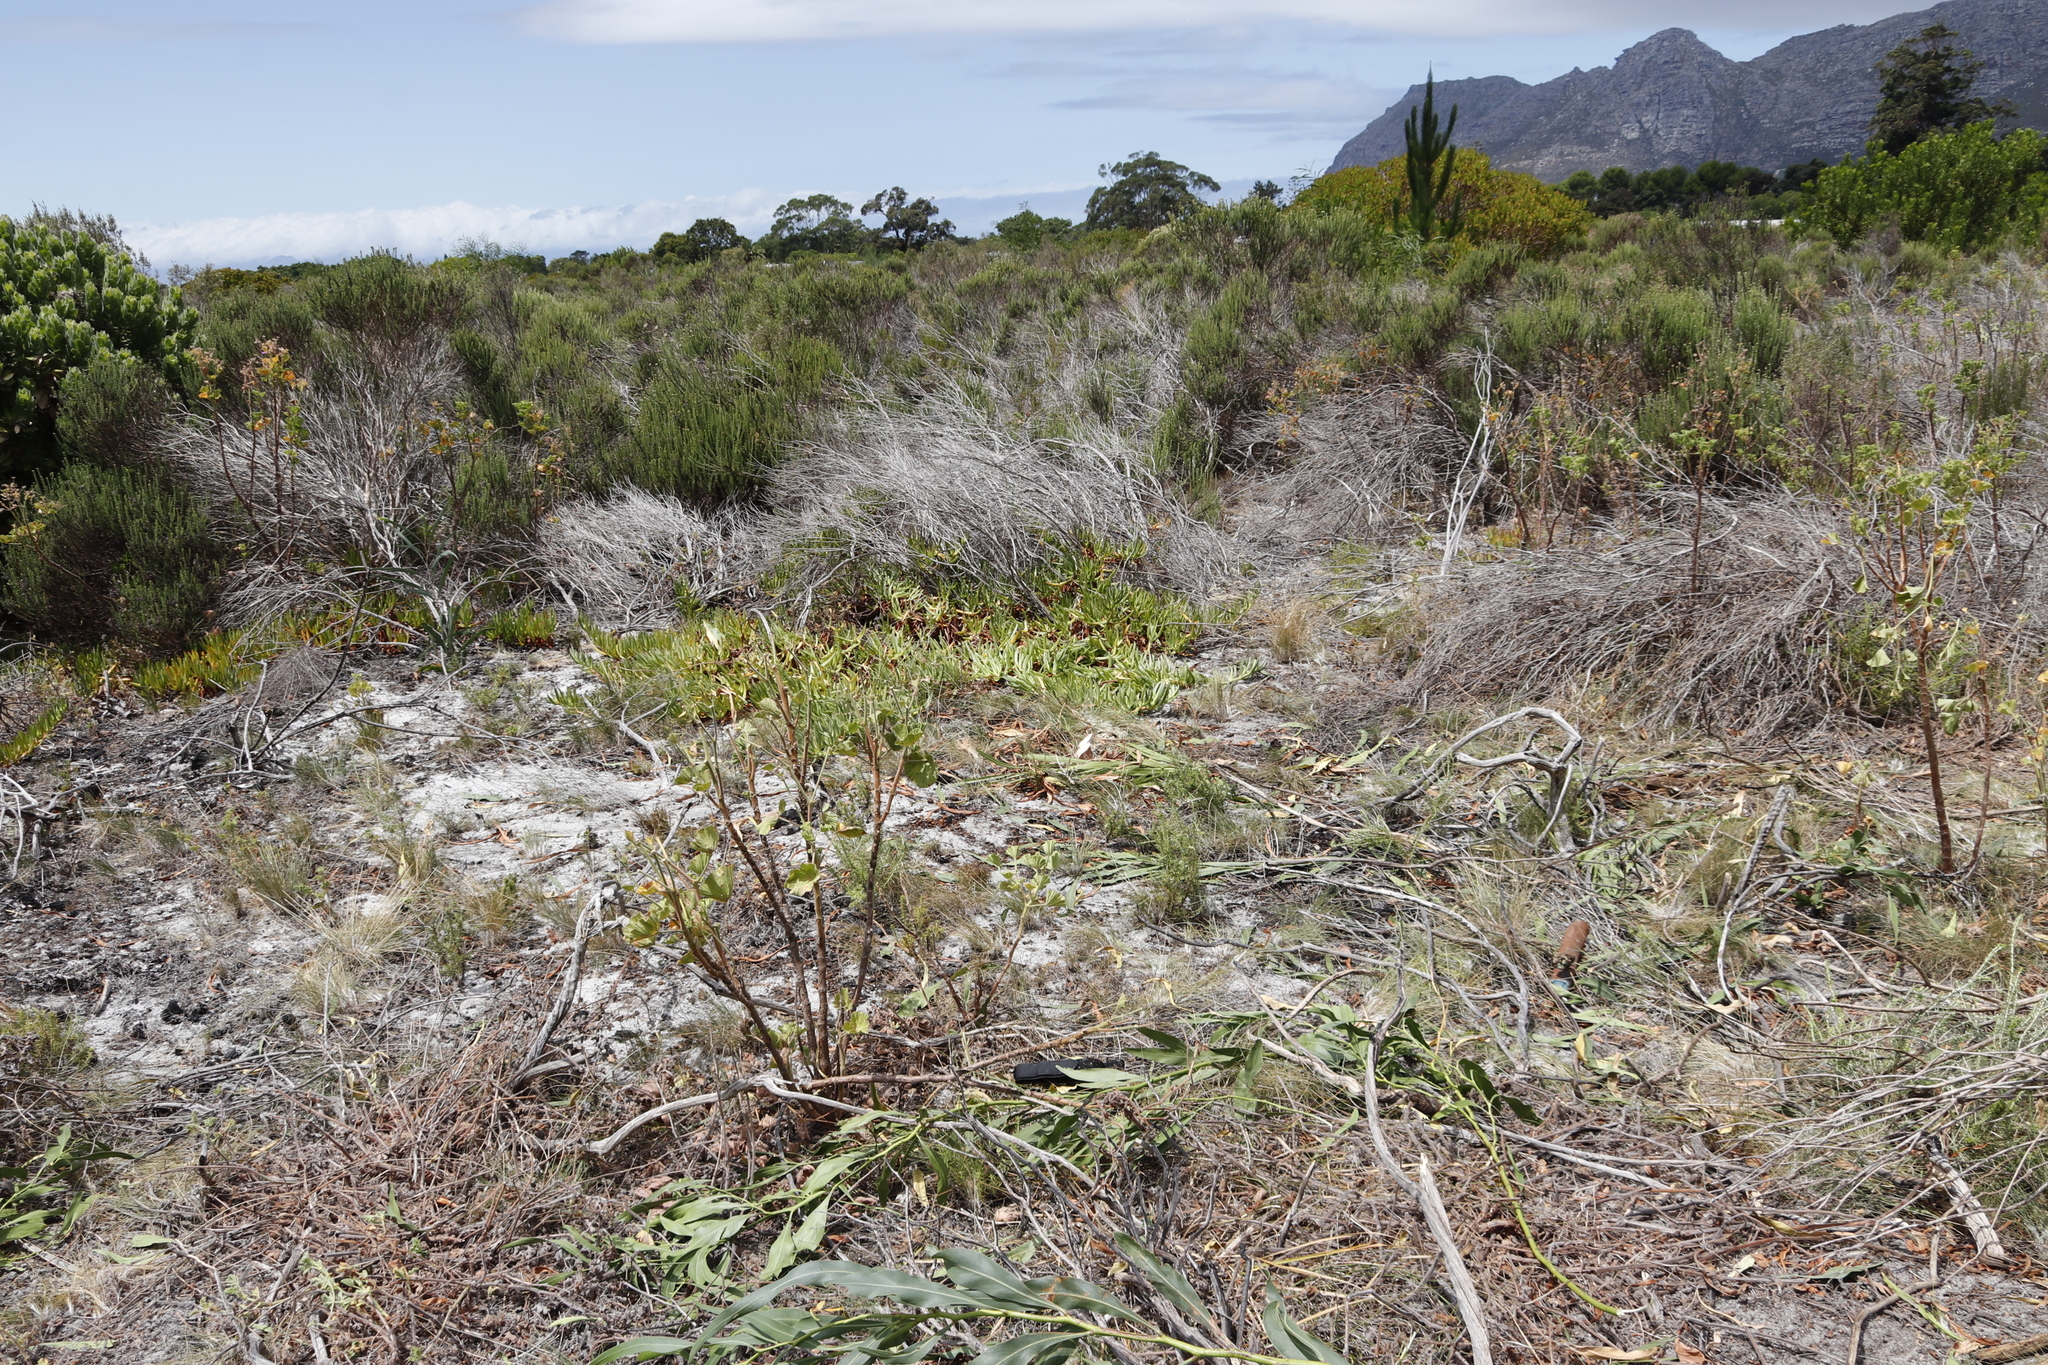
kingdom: Plantae
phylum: Tracheophyta
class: Magnoliopsida
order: Caryophyllales
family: Aizoaceae
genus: Carpobrotus
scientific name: Carpobrotus edulis
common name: Hottentot-fig
